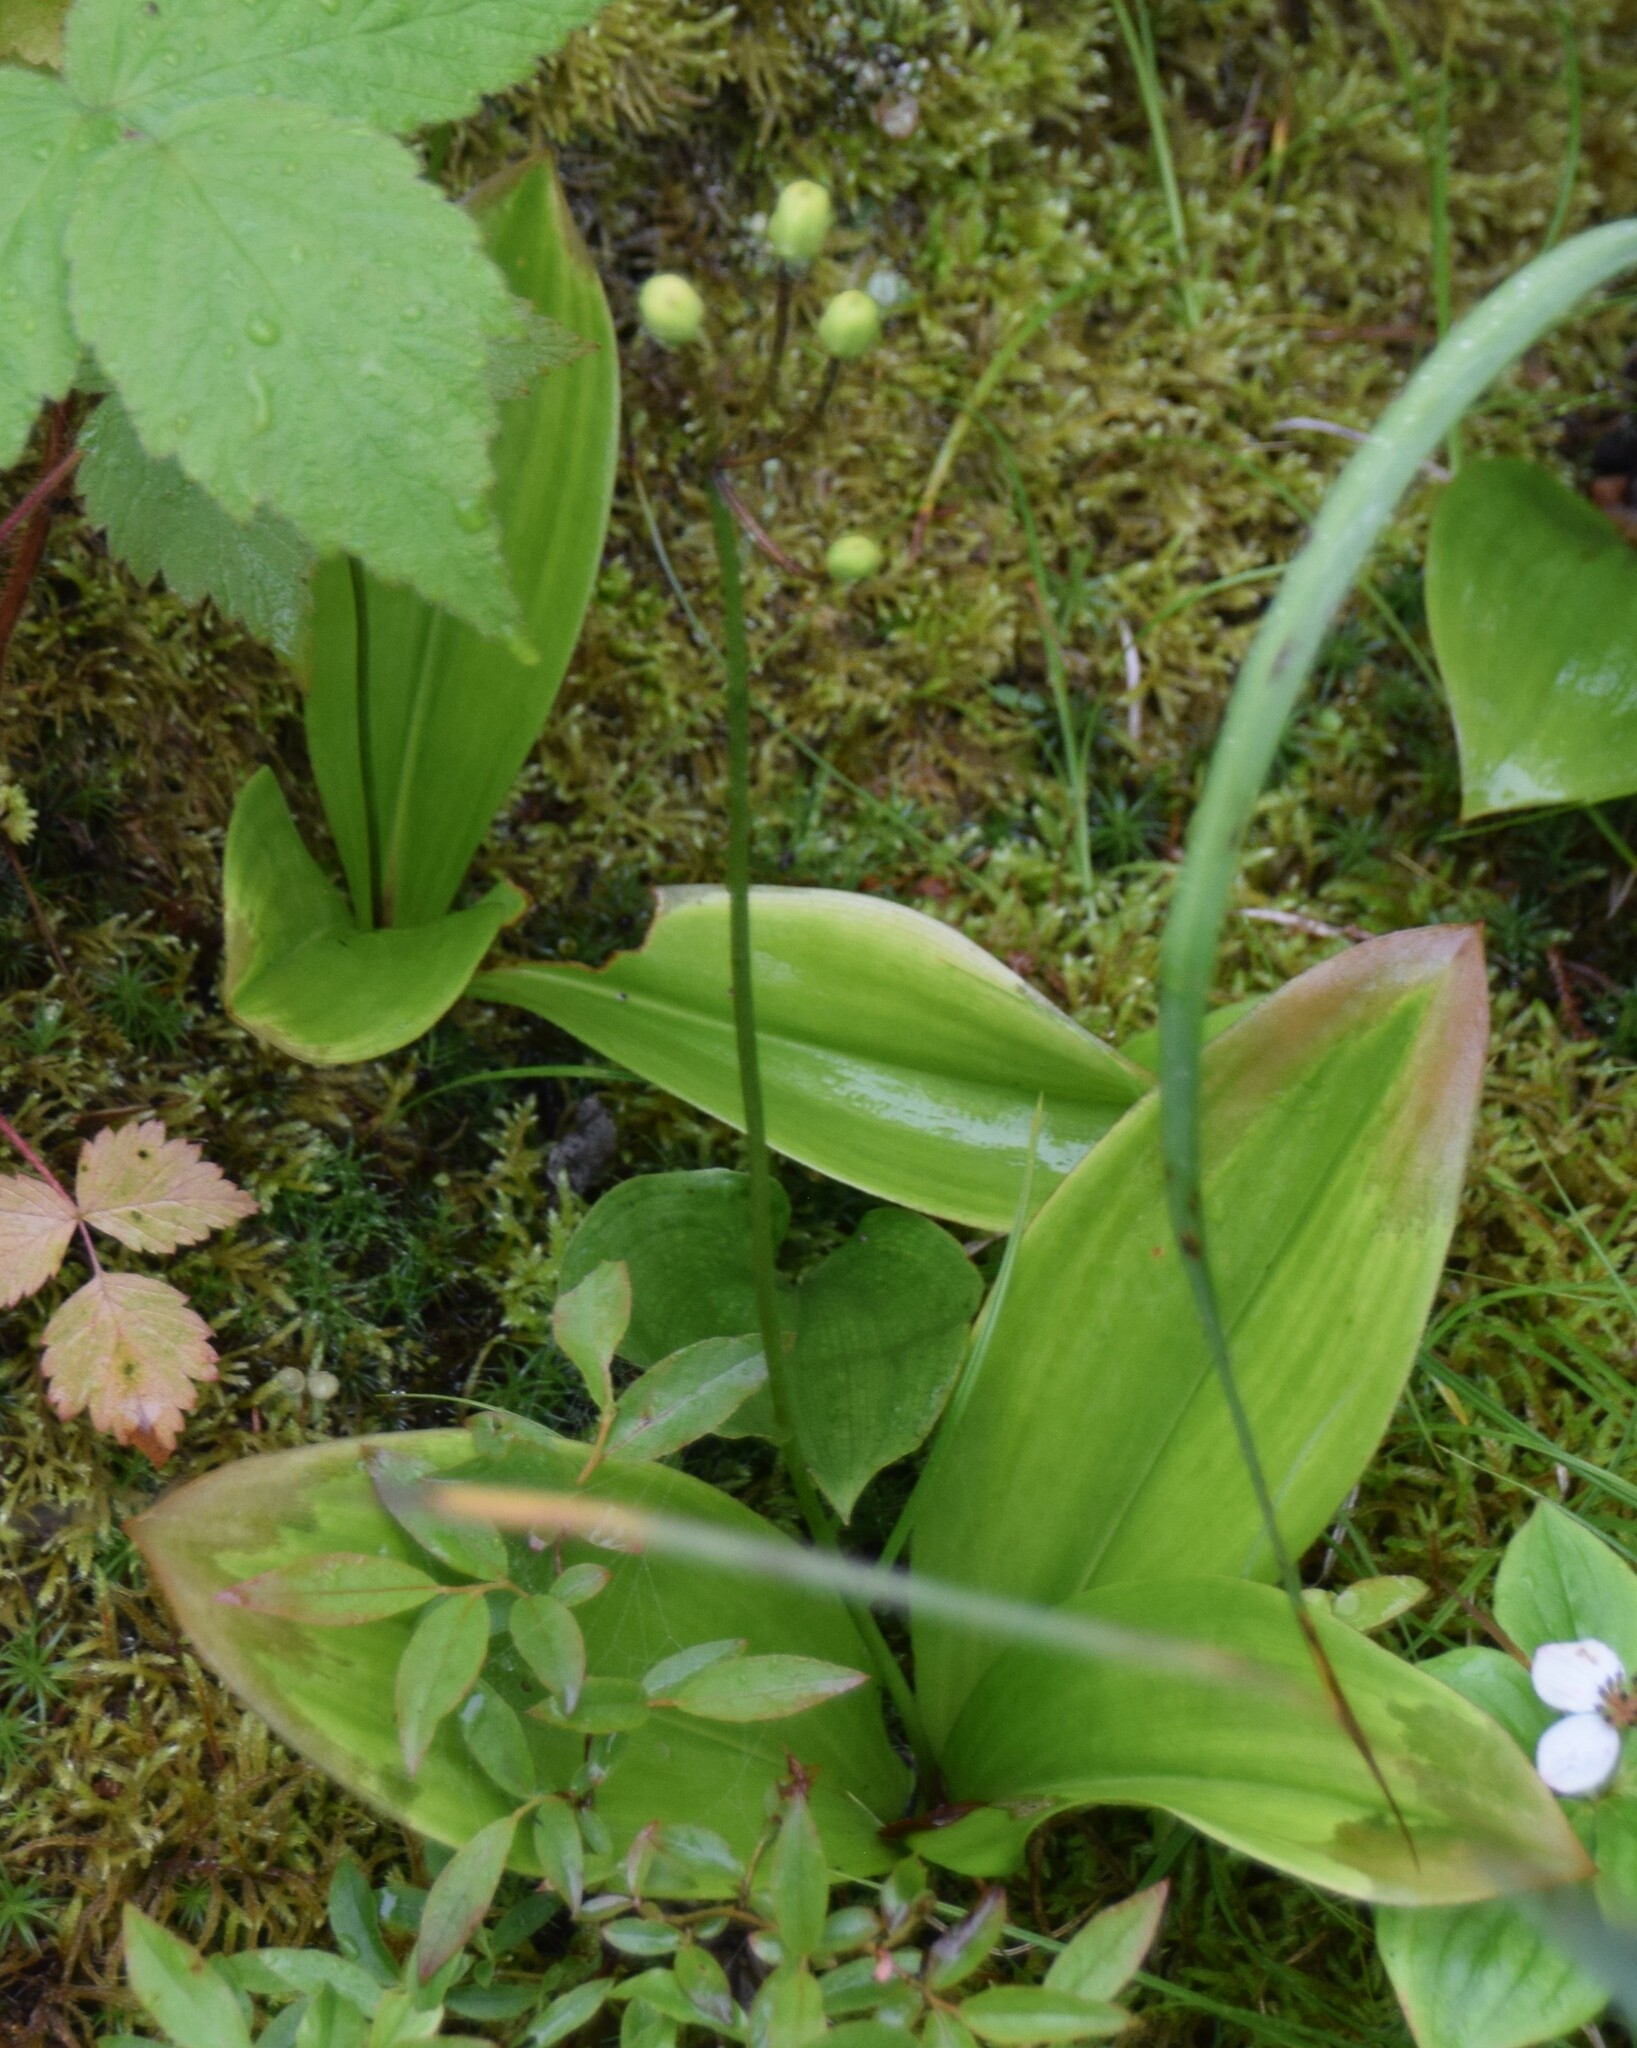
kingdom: Plantae
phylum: Tracheophyta
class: Liliopsida
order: Liliales
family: Liliaceae
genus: Clintonia
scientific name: Clintonia borealis
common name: Yellow clintonia
